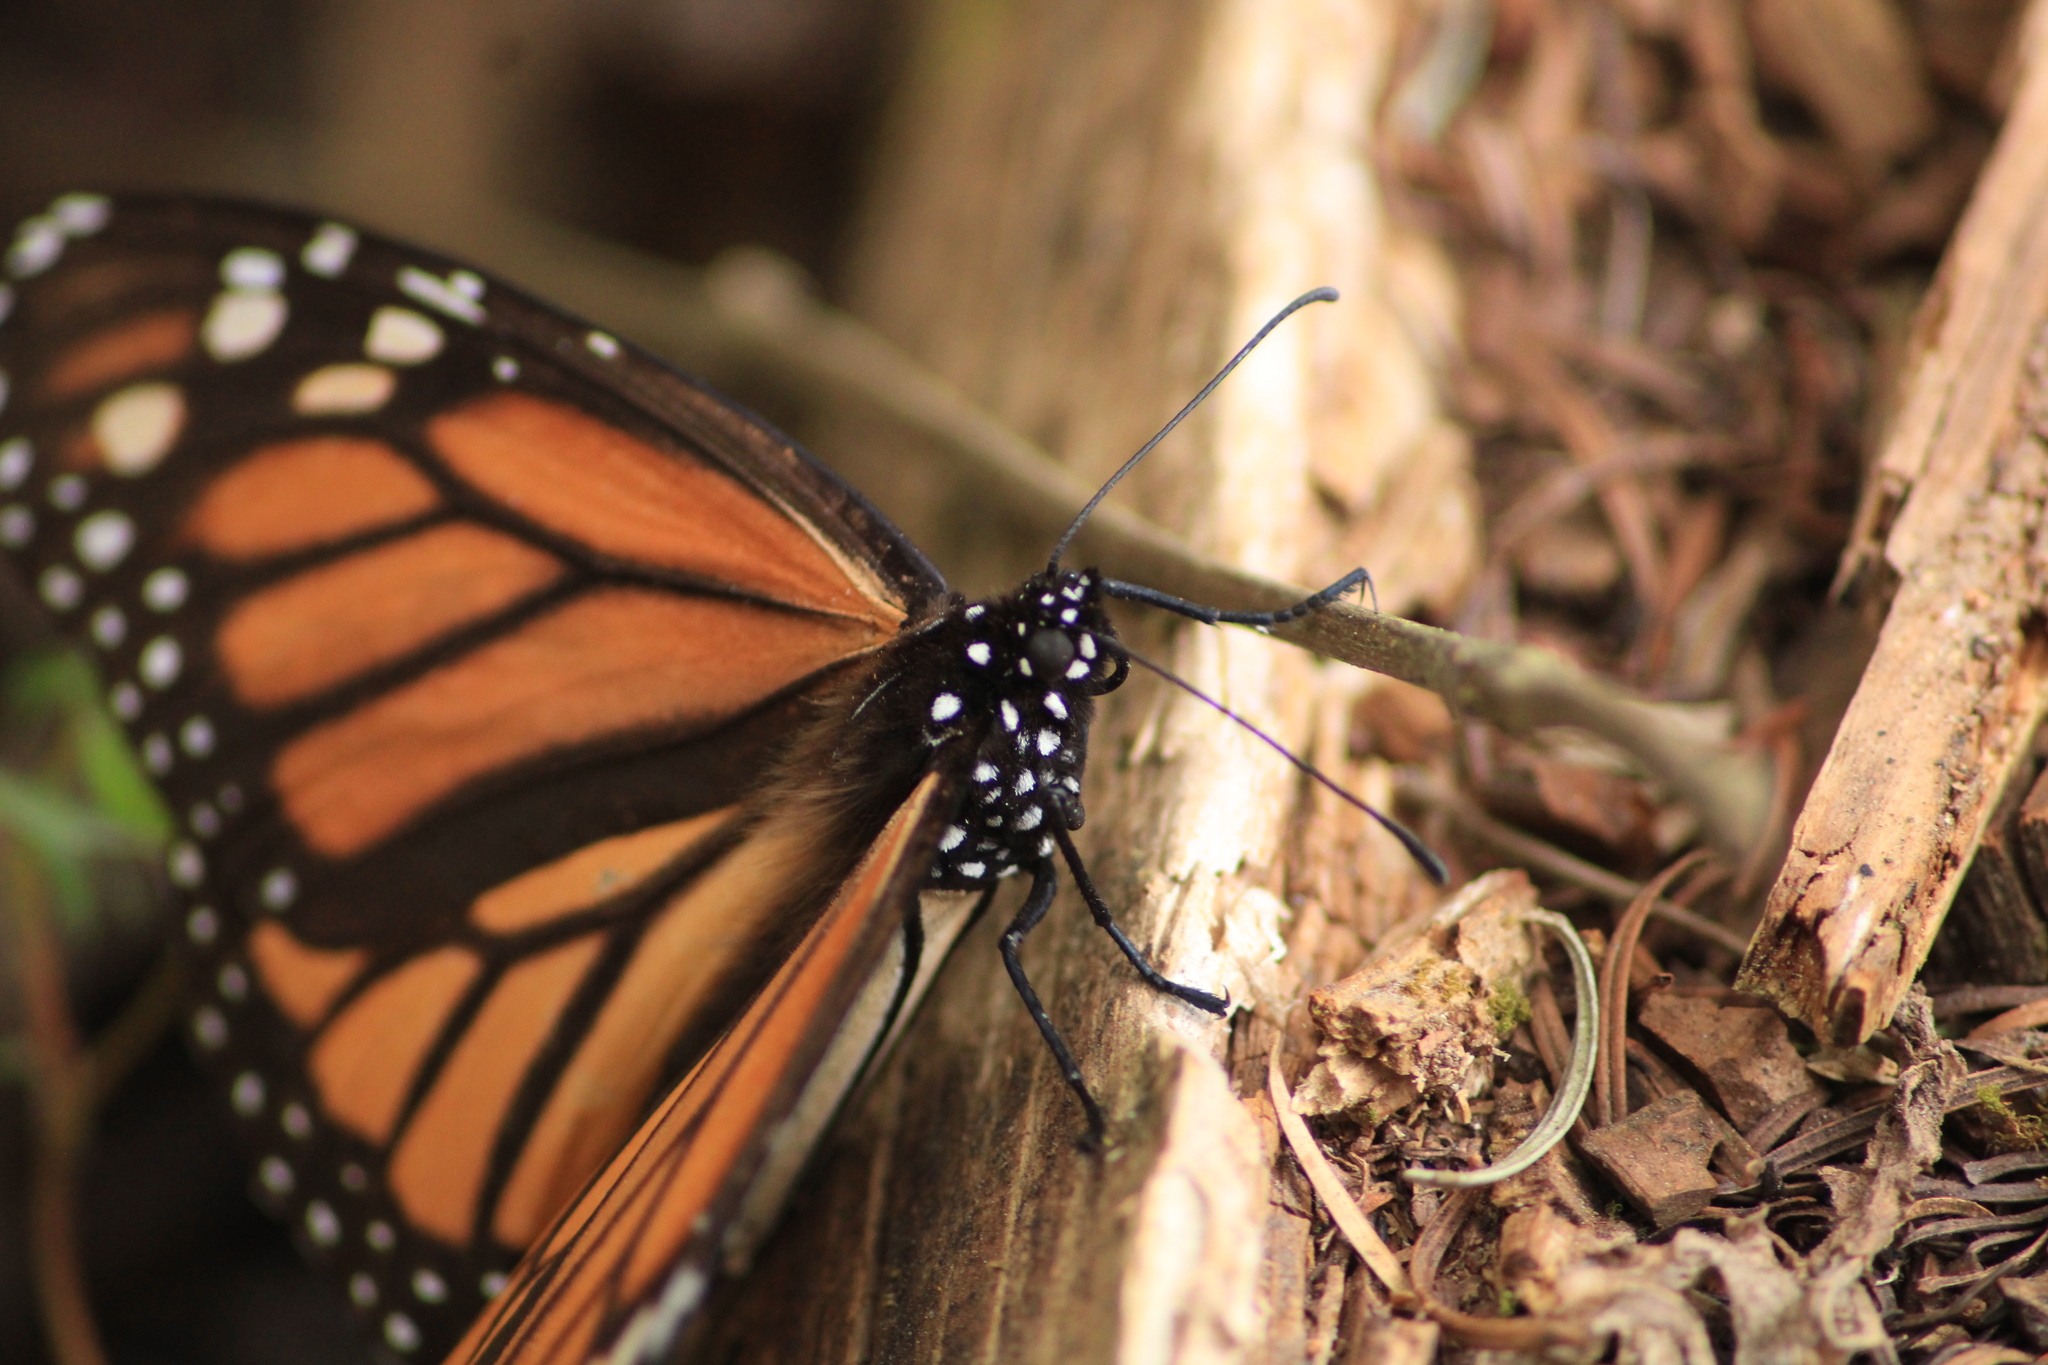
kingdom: Animalia
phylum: Arthropoda
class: Insecta
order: Lepidoptera
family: Nymphalidae
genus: Danaus
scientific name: Danaus plexippus
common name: Monarch
